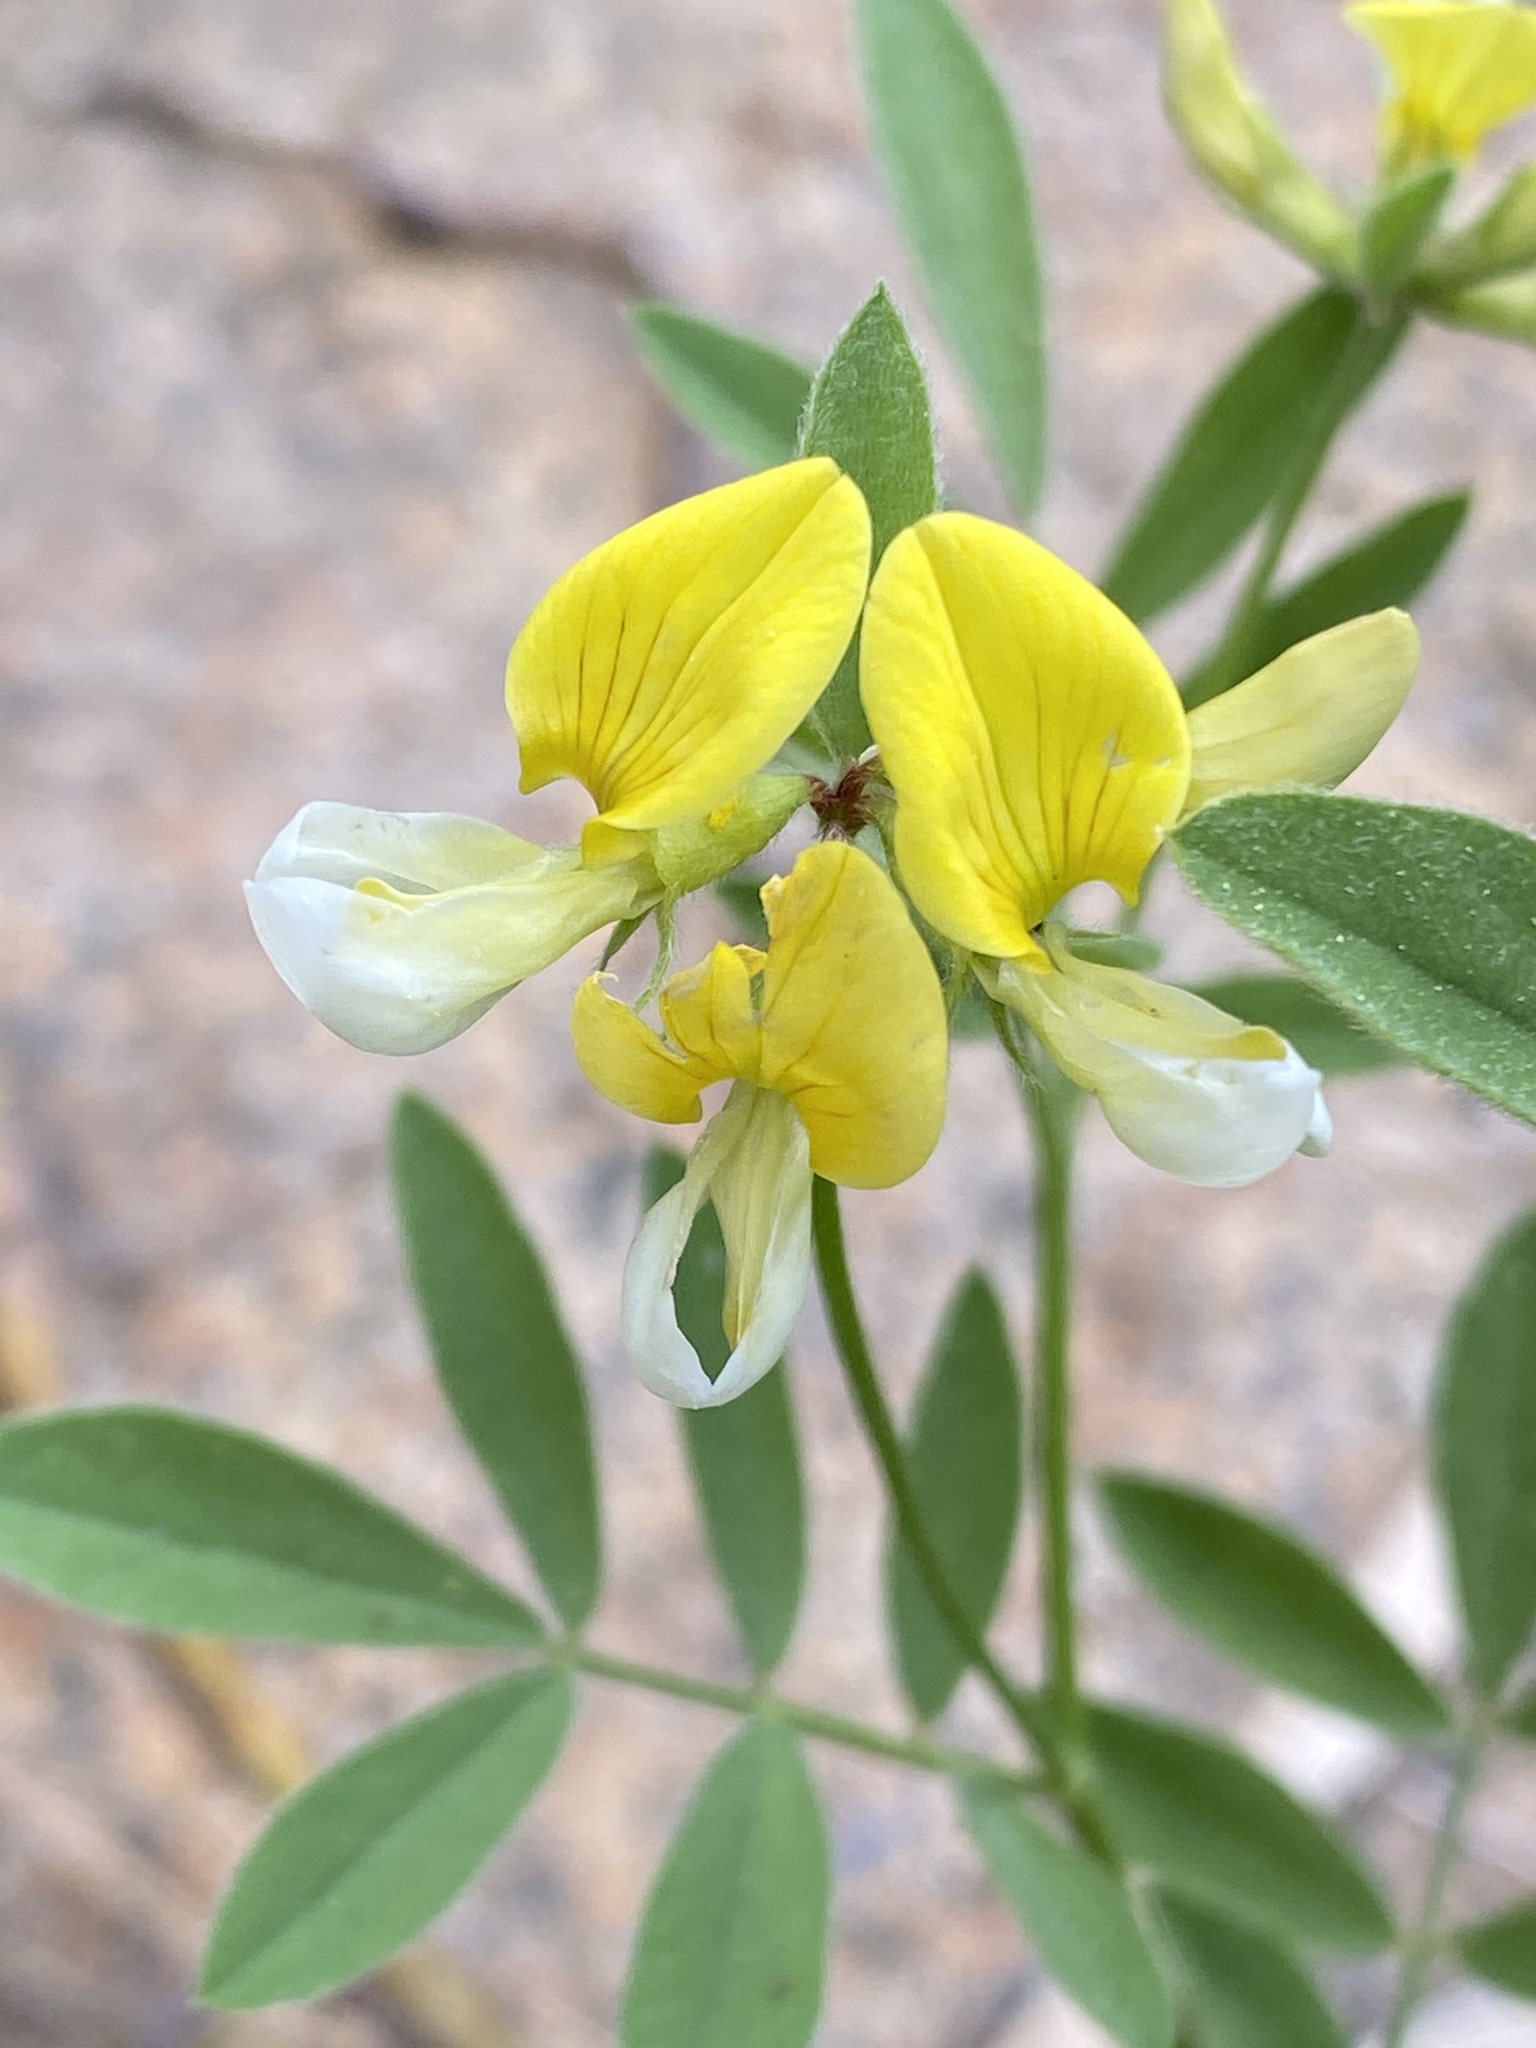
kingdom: Plantae
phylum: Tracheophyta
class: Magnoliopsida
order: Fabales
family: Fabaceae
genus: Hosackia
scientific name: Hosackia oblongifolia
